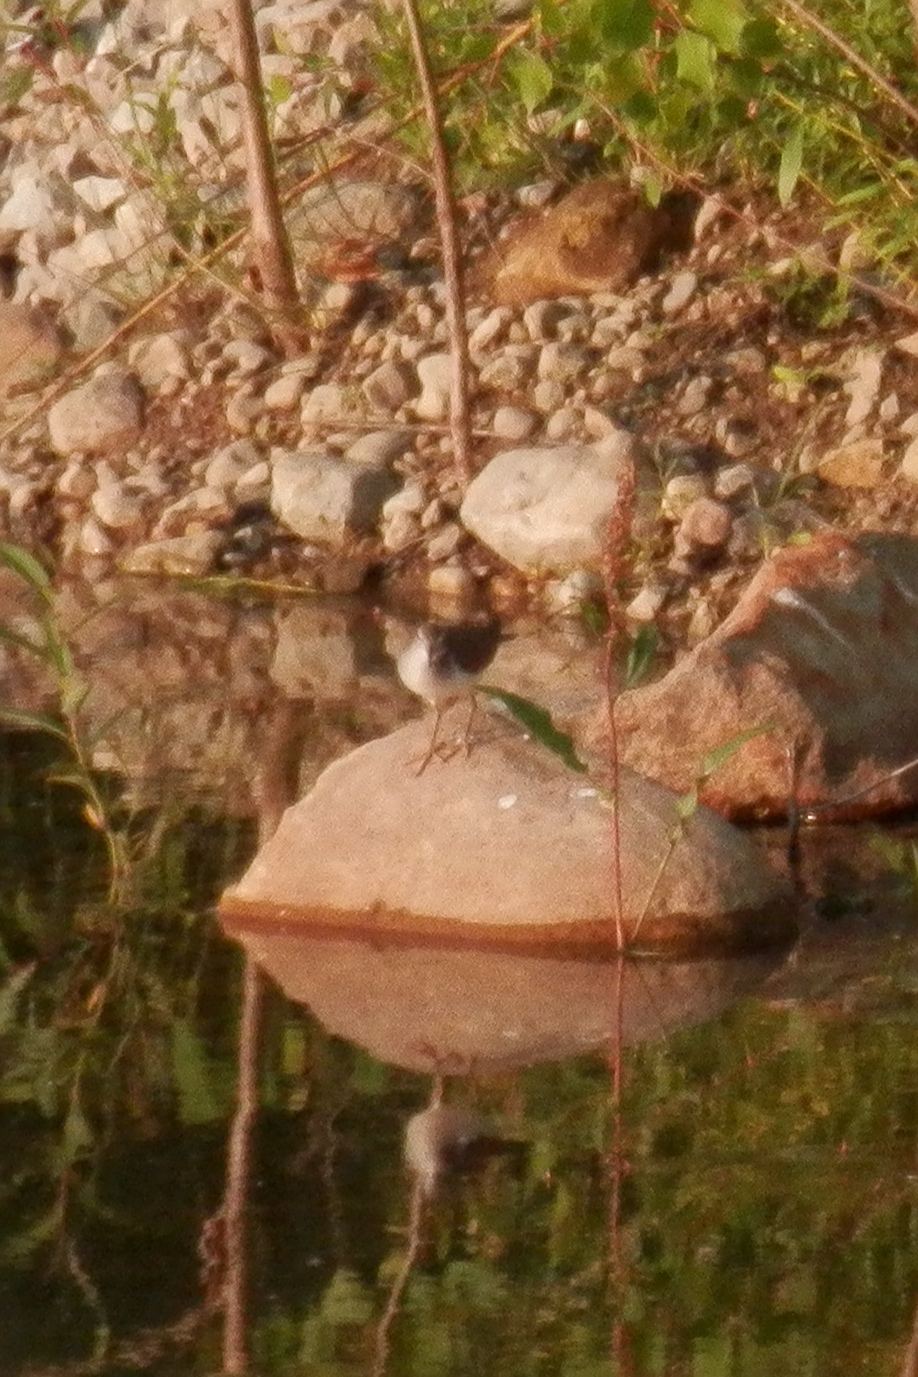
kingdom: Animalia
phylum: Chordata
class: Aves
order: Charadriiformes
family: Scolopacidae
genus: Actitis
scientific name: Actitis macularius
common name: Spotted sandpiper
